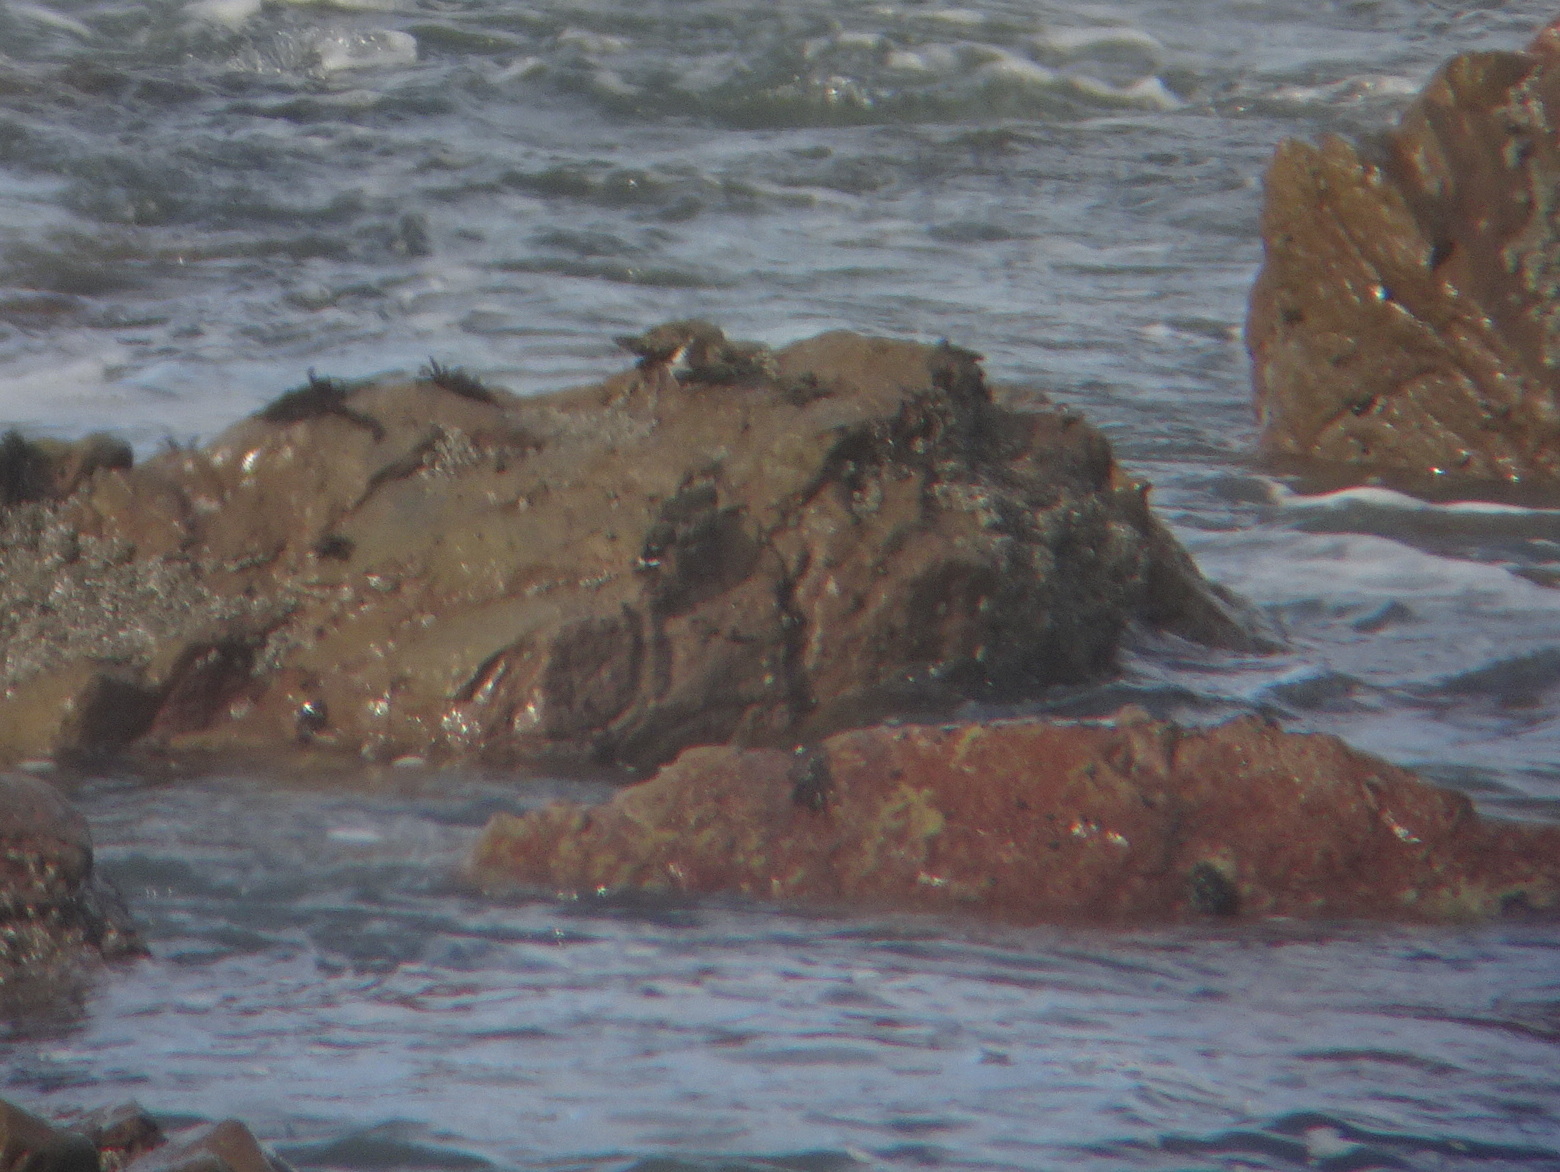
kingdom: Animalia
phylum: Chordata
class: Aves
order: Charadriiformes
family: Scolopacidae
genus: Arenaria
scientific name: Arenaria melanocephala
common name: Black turnstone
